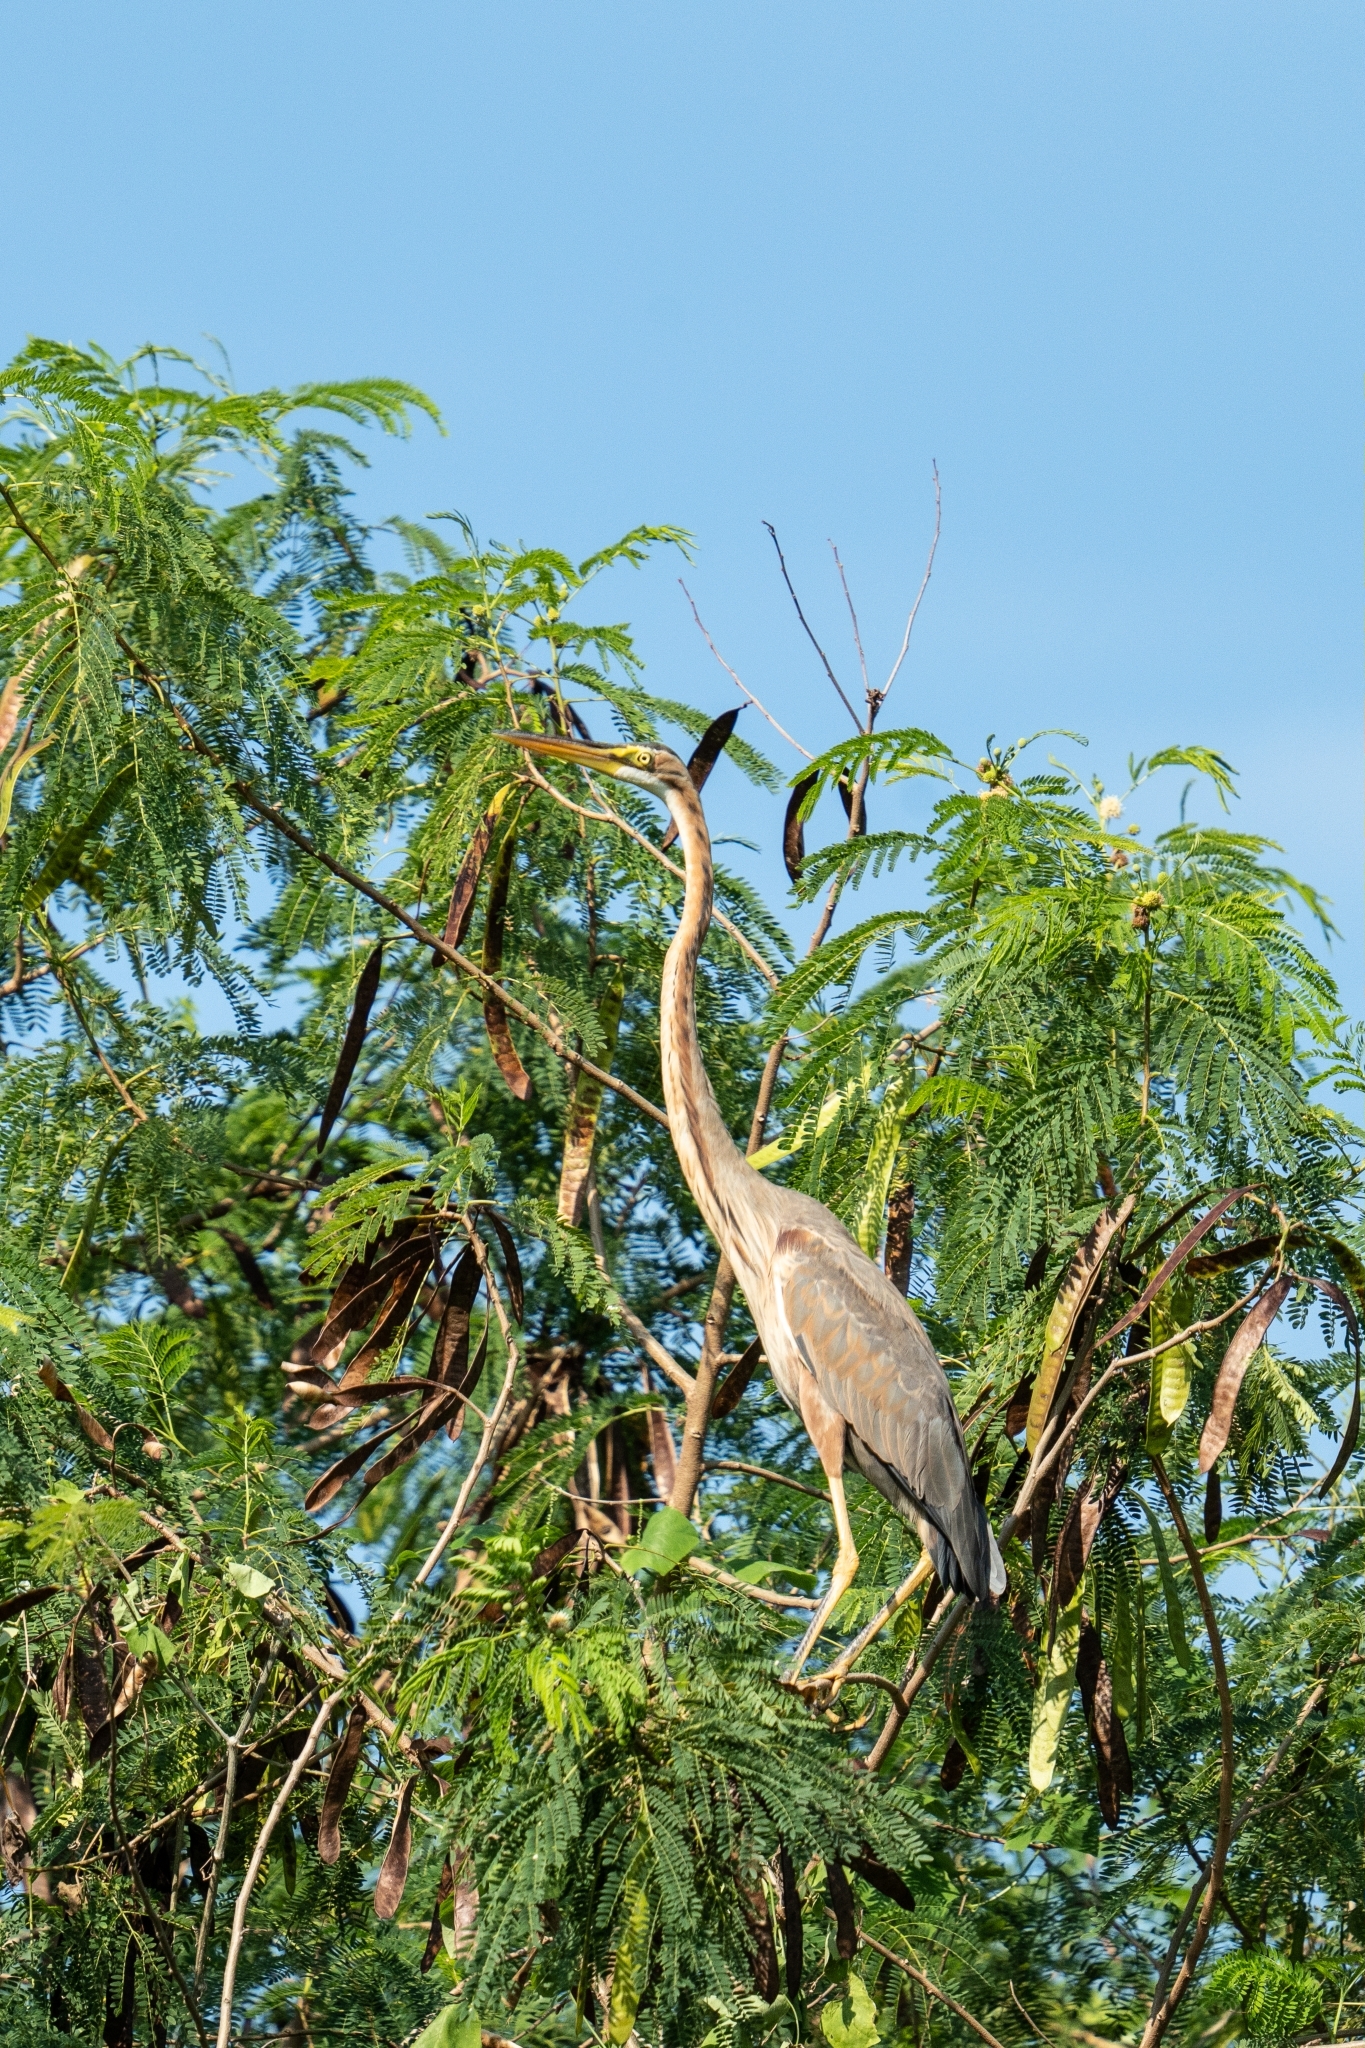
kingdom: Animalia
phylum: Chordata
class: Aves
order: Pelecaniformes
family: Ardeidae
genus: Ardea
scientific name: Ardea purpurea
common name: Purple heron
